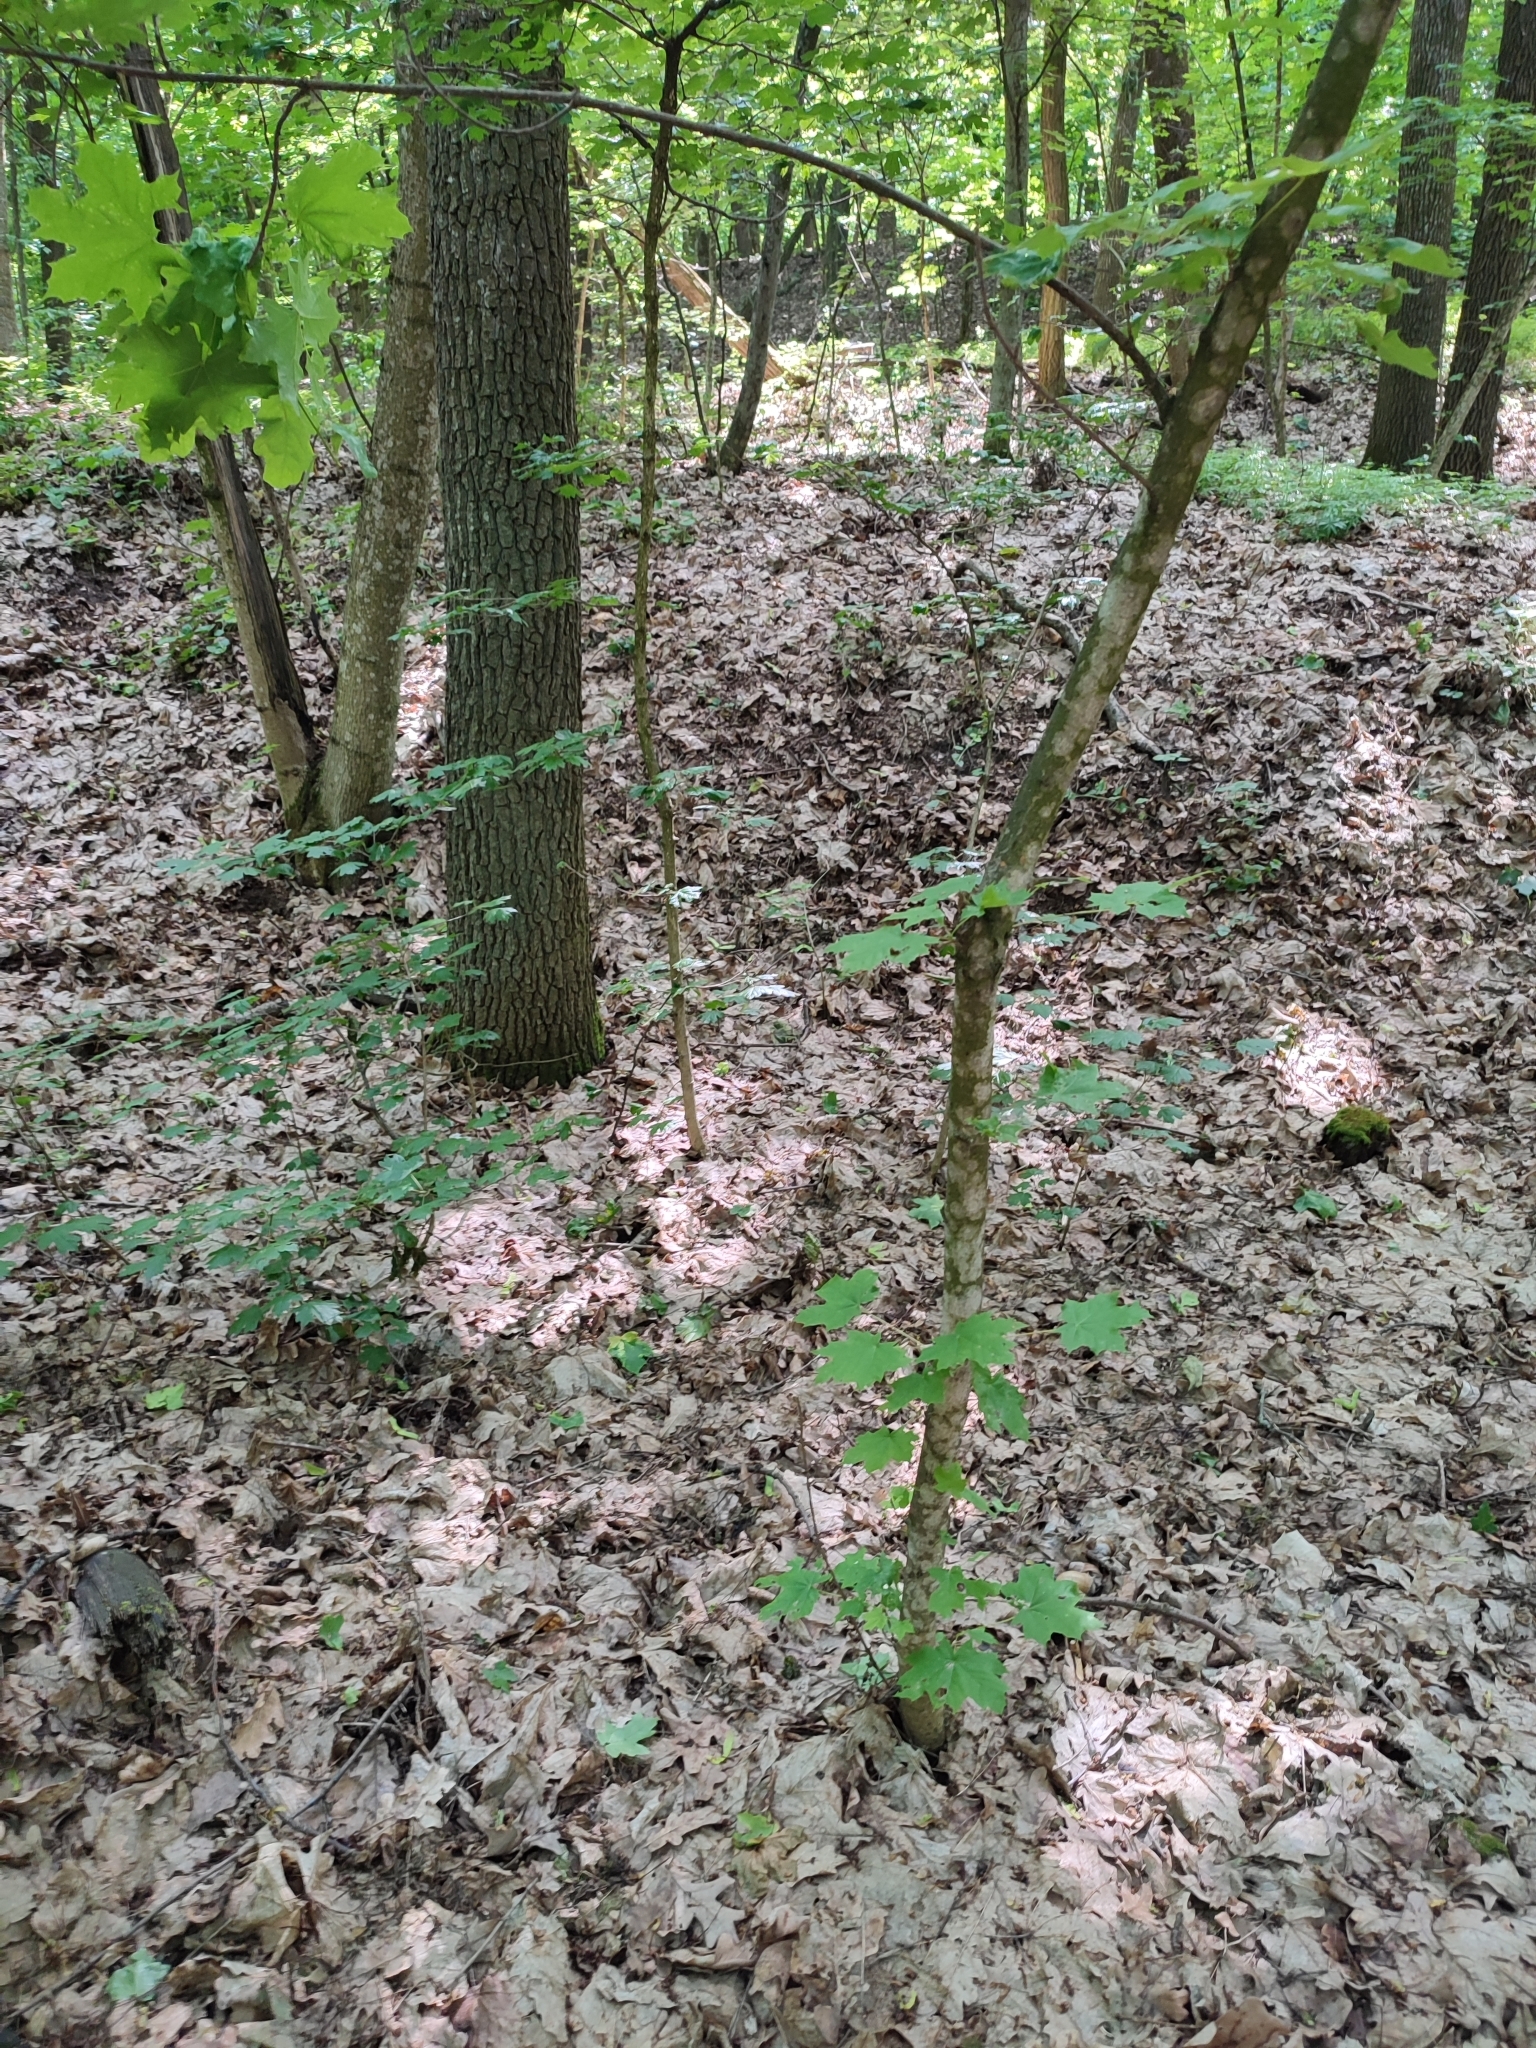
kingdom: Plantae
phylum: Tracheophyta
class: Magnoliopsida
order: Sapindales
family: Sapindaceae
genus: Acer
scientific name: Acer platanoides
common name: Norway maple
